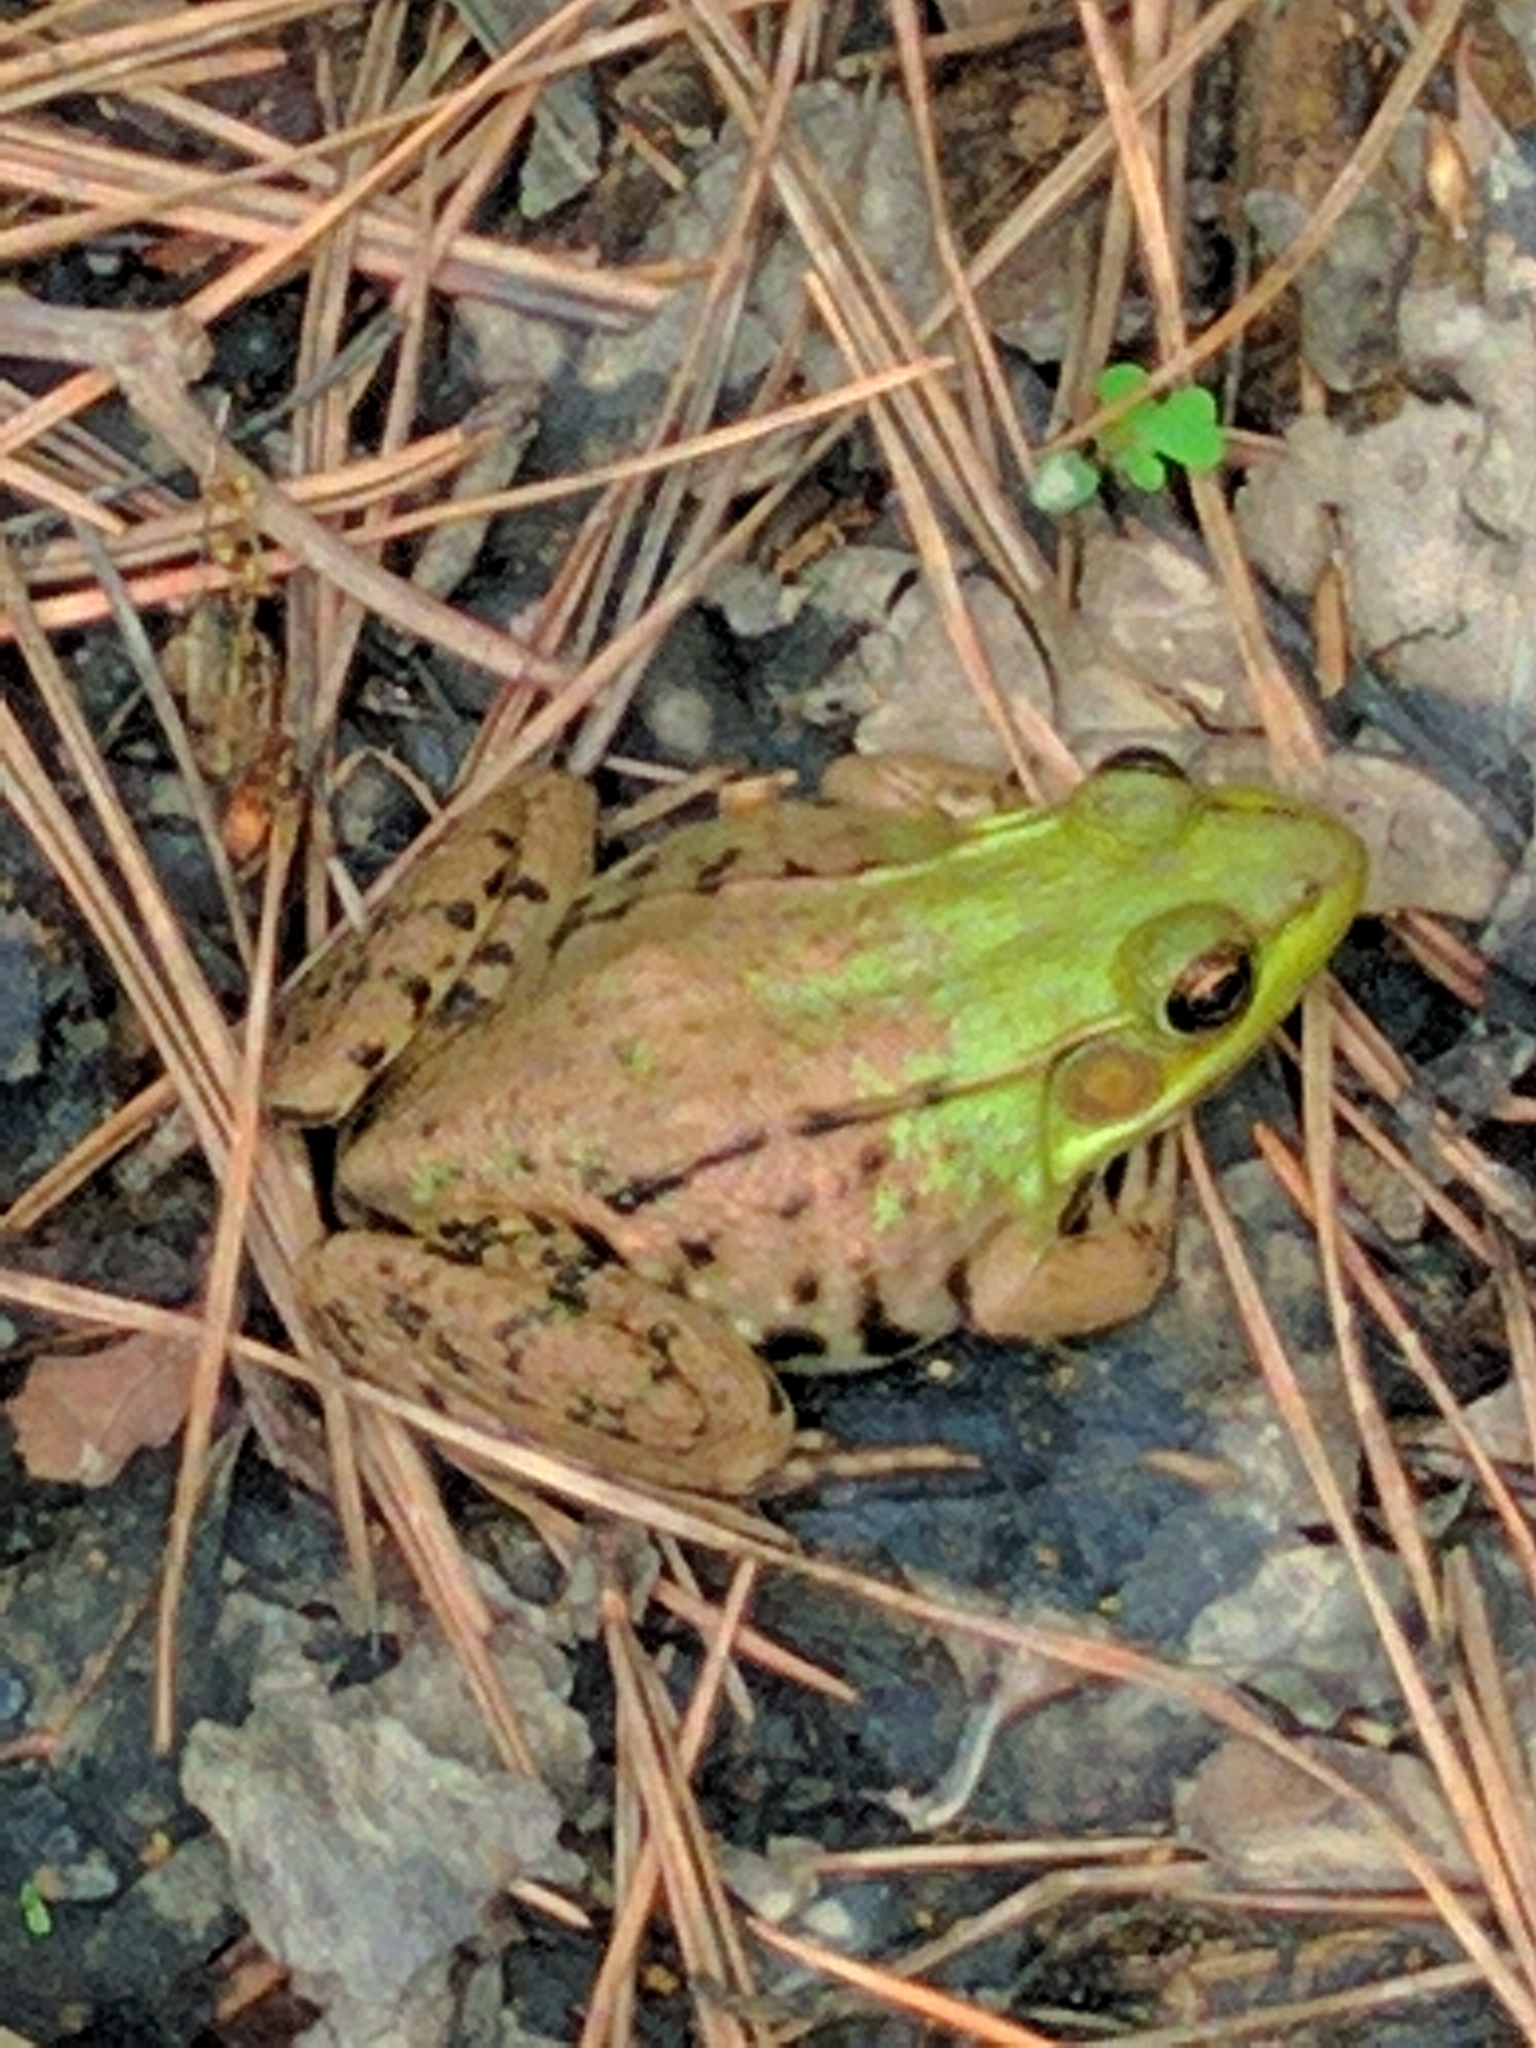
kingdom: Animalia
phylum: Chordata
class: Amphibia
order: Anura
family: Ranidae
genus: Lithobates
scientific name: Lithobates clamitans
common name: Green frog
